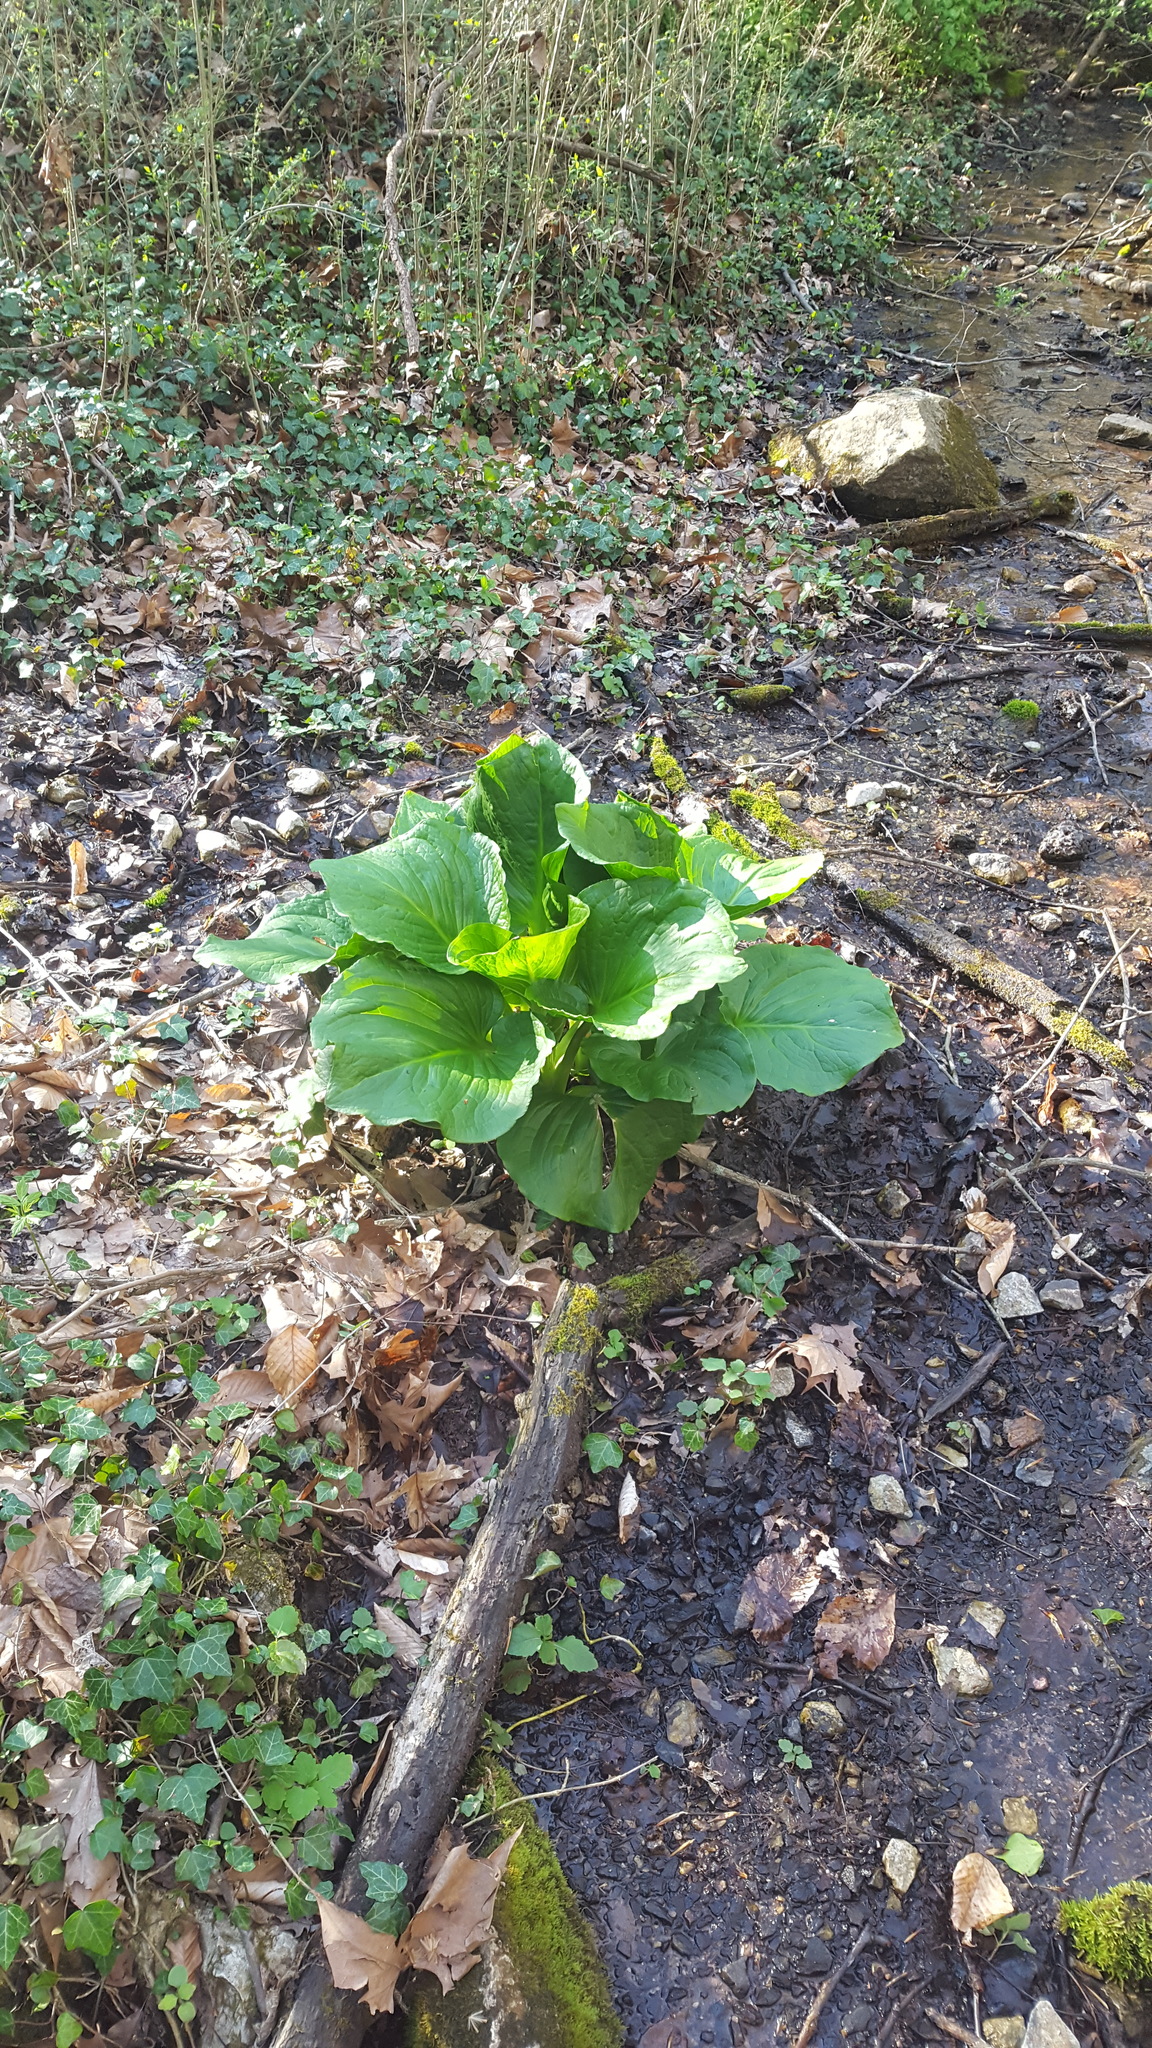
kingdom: Plantae
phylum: Tracheophyta
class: Liliopsida
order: Alismatales
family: Araceae
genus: Symplocarpus
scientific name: Symplocarpus foetidus
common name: Eastern skunk cabbage
